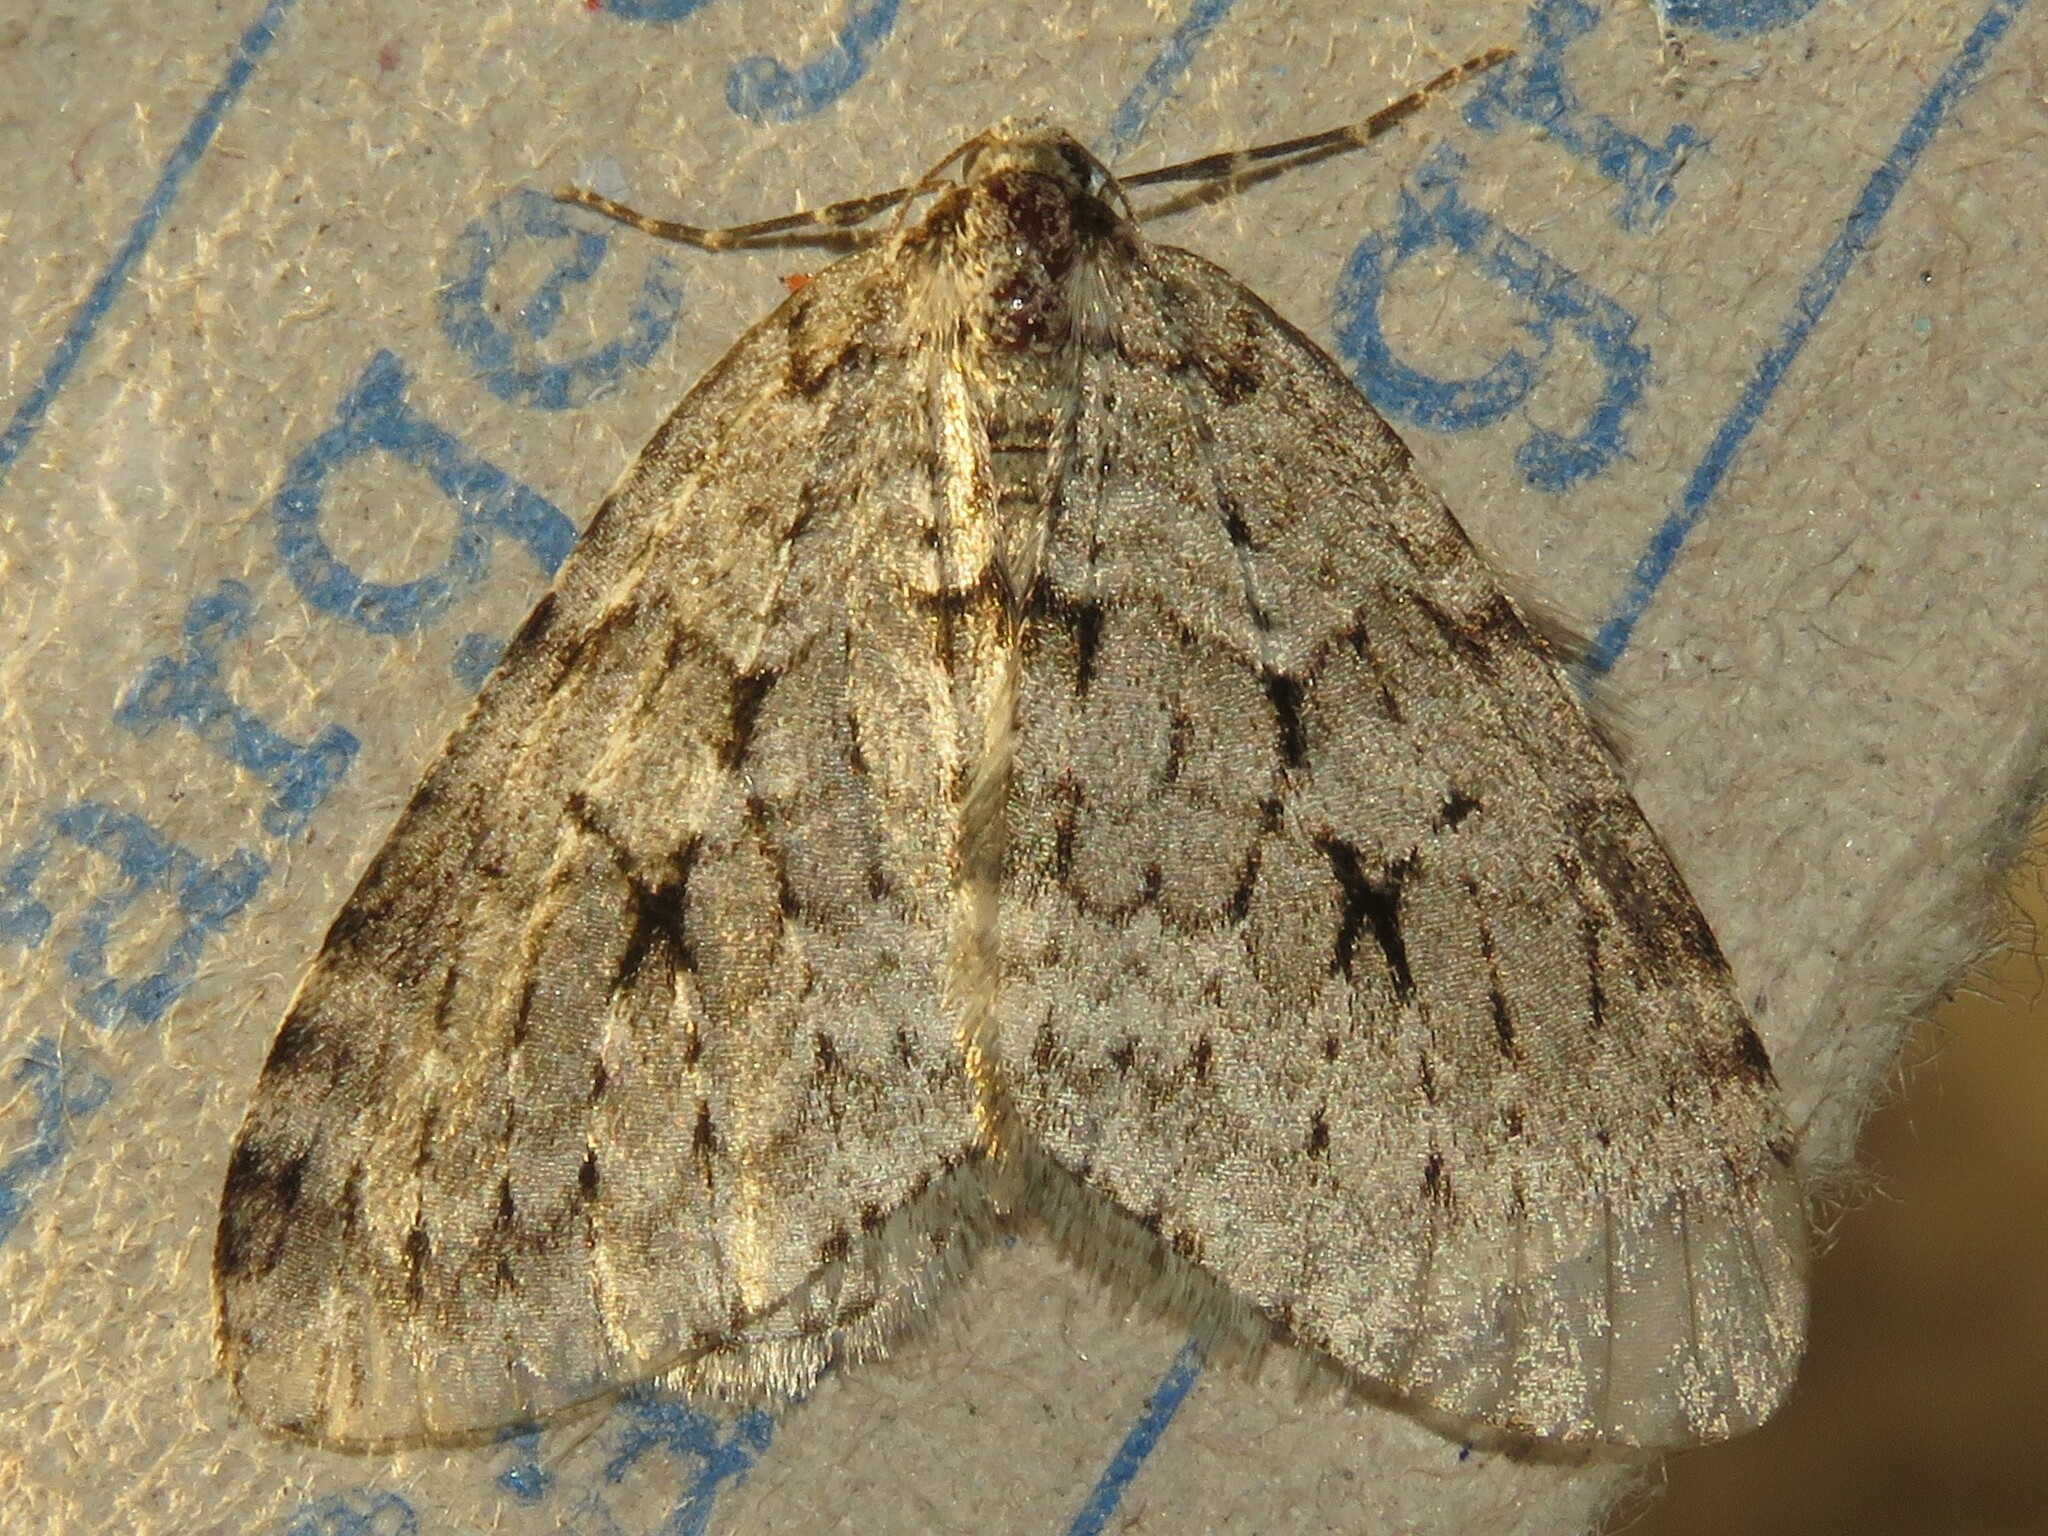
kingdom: Animalia
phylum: Arthropoda
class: Insecta
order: Lepidoptera
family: Geometridae
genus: Epirrita
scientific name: Epirrita autumnata
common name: Autumnal moth
